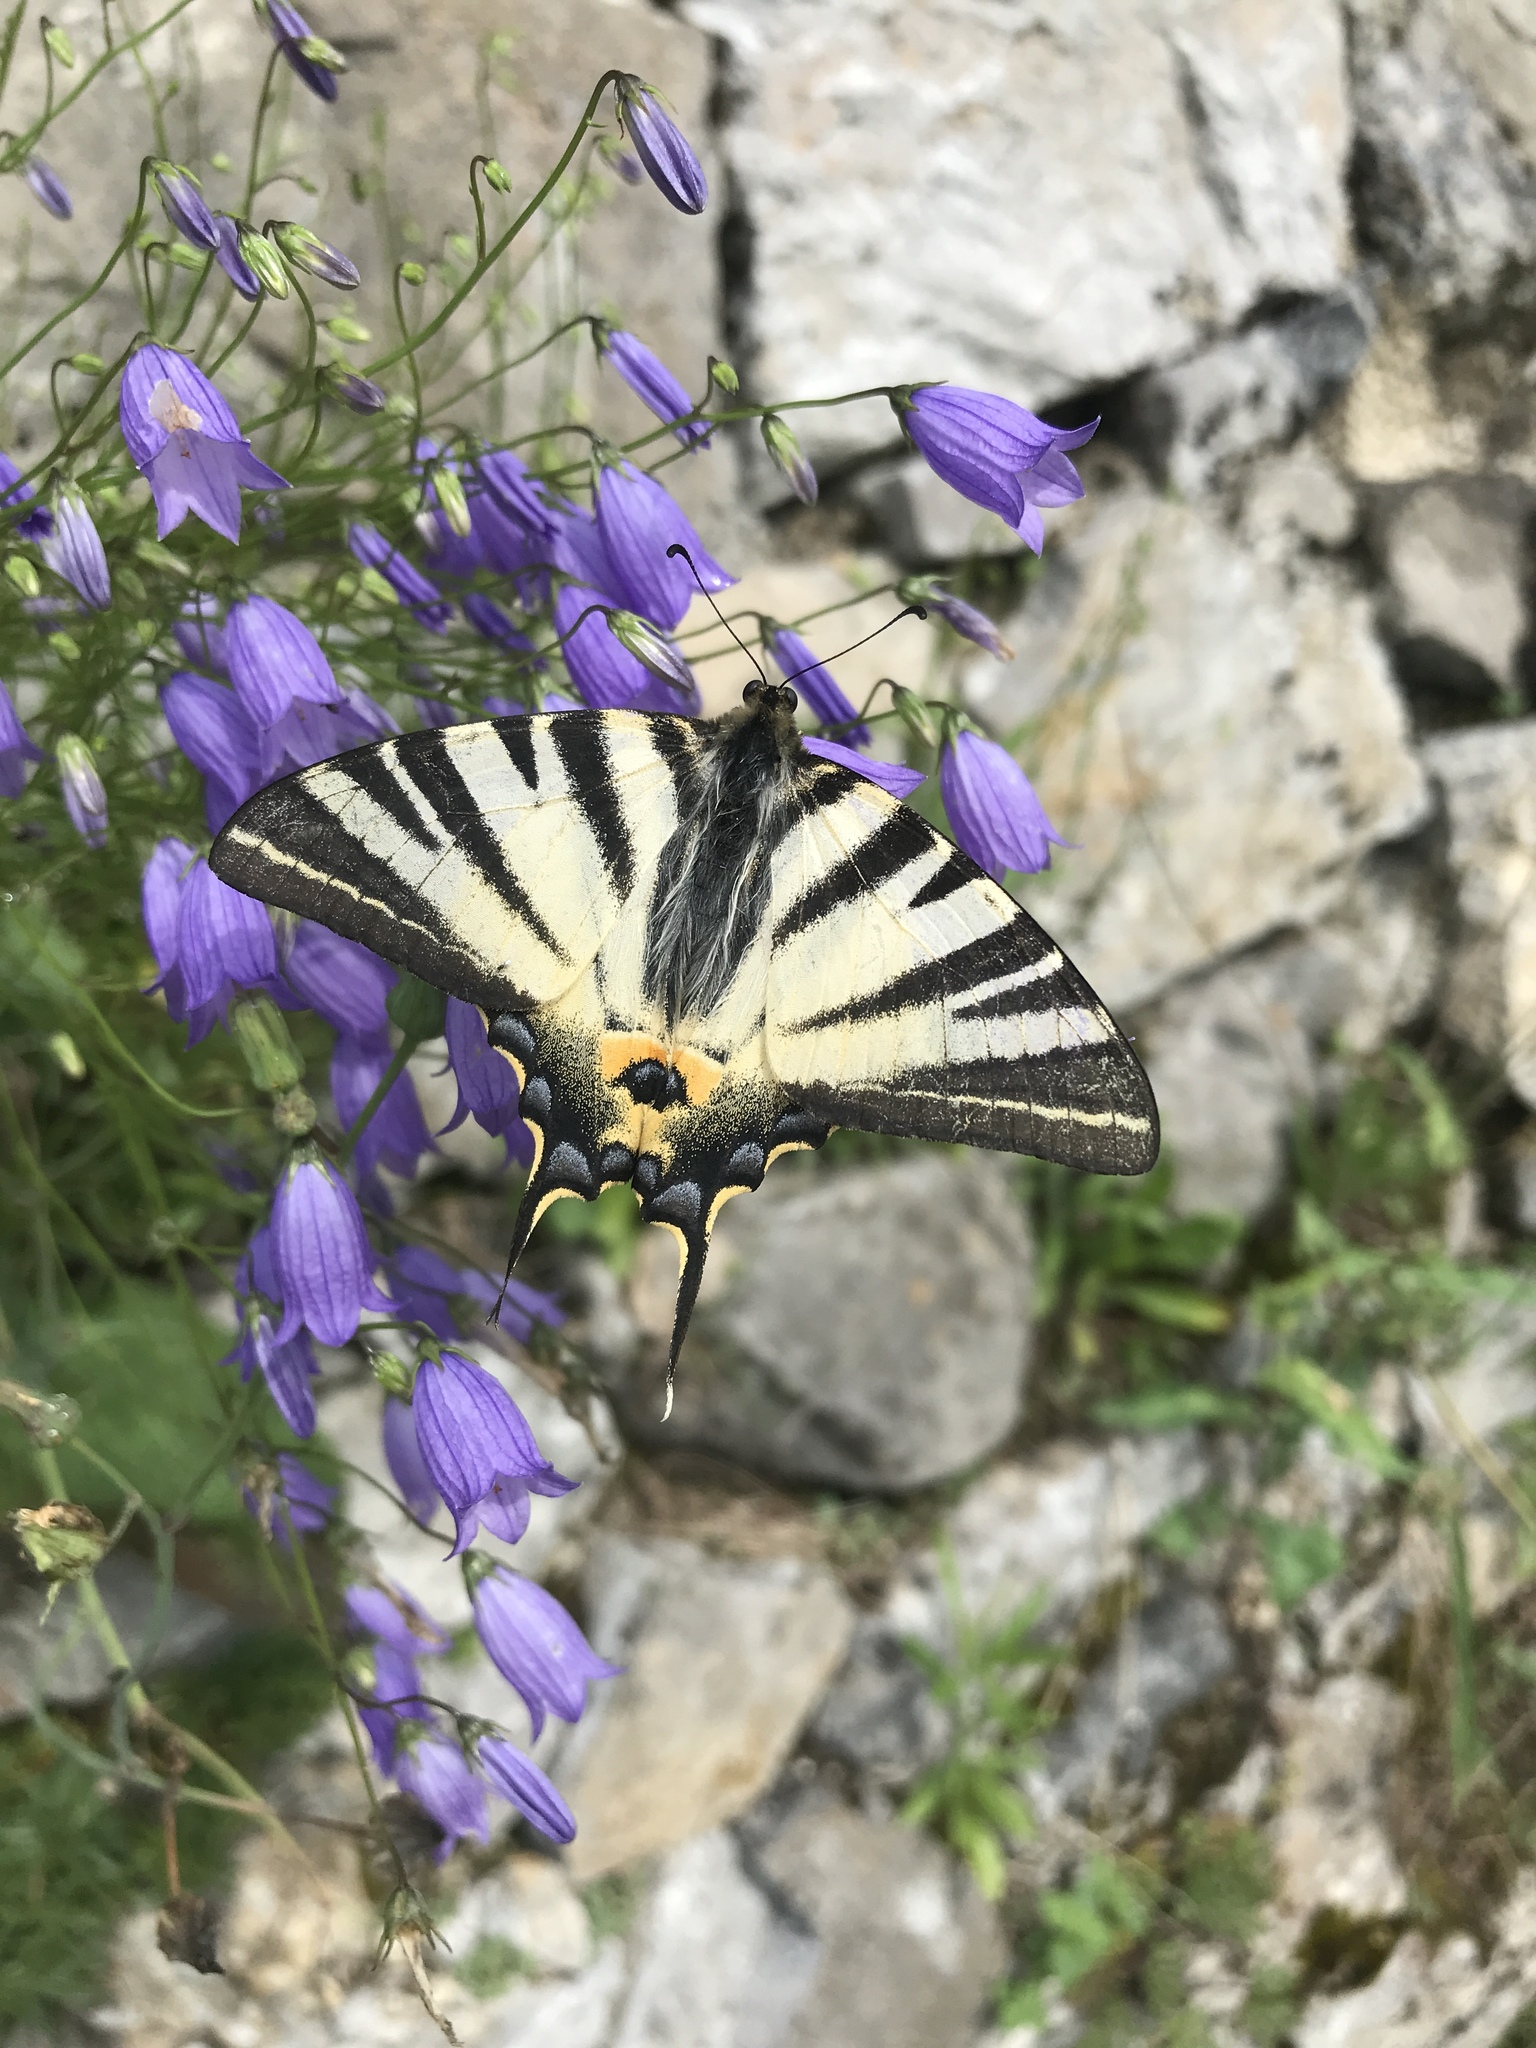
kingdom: Animalia
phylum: Arthropoda
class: Insecta
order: Lepidoptera
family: Papilionidae
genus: Iphiclides
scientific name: Iphiclides podalirius
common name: Scarce swallowtail
